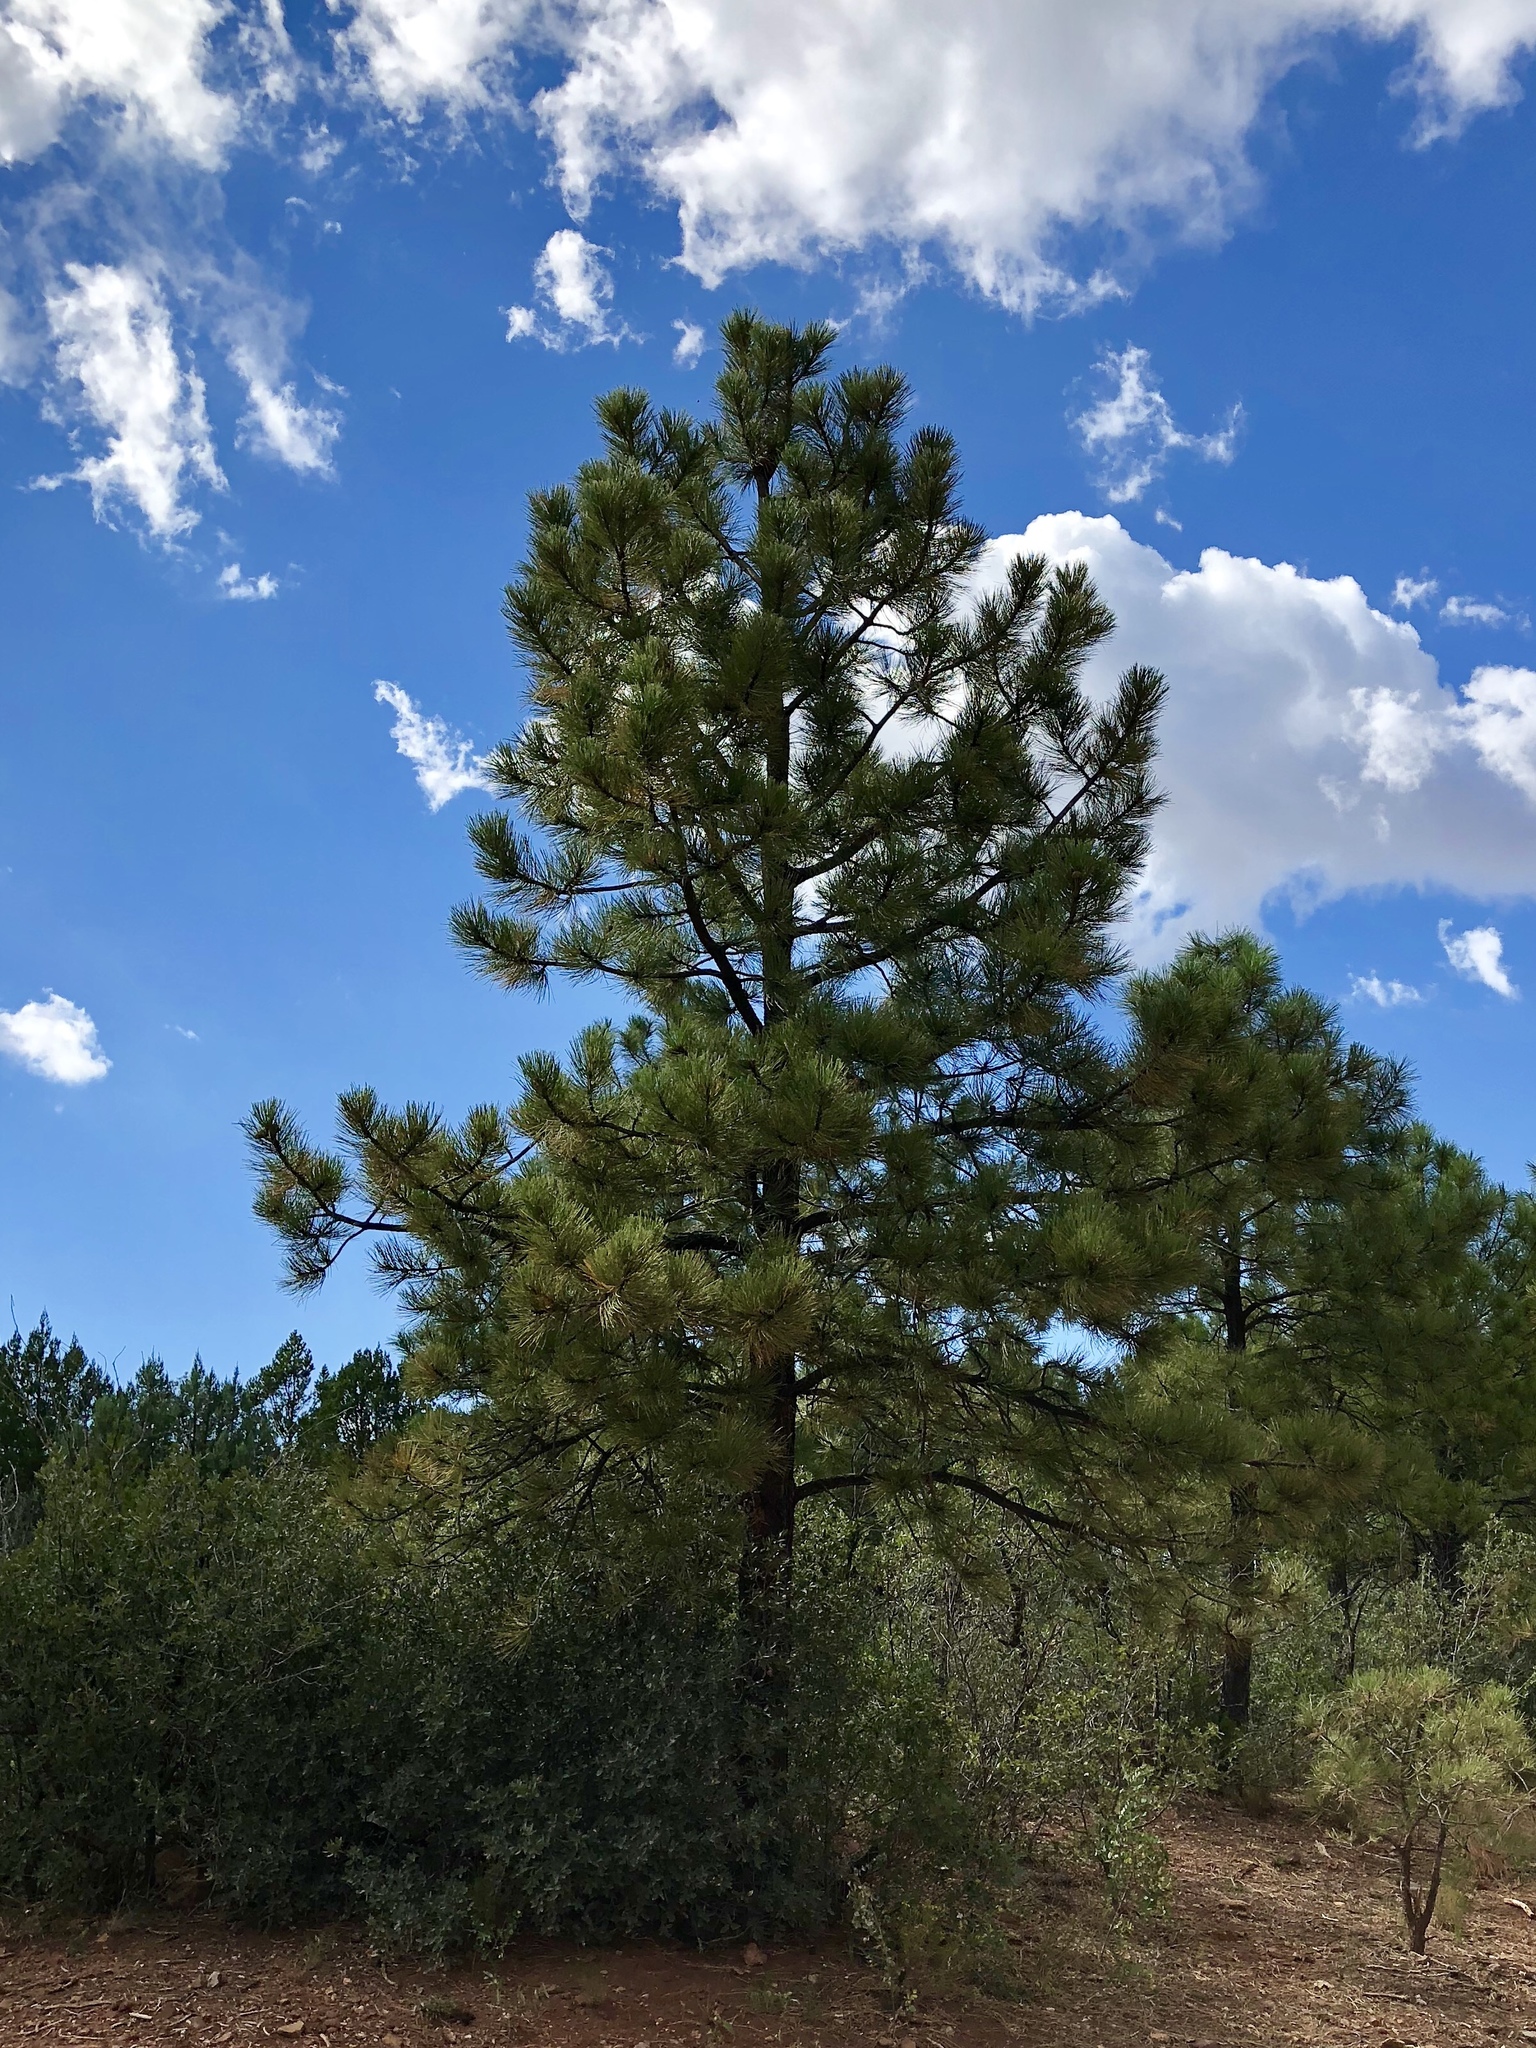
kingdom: Plantae
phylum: Tracheophyta
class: Pinopsida
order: Pinales
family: Pinaceae
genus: Pinus
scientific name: Pinus ponderosa
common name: Western yellow-pine
